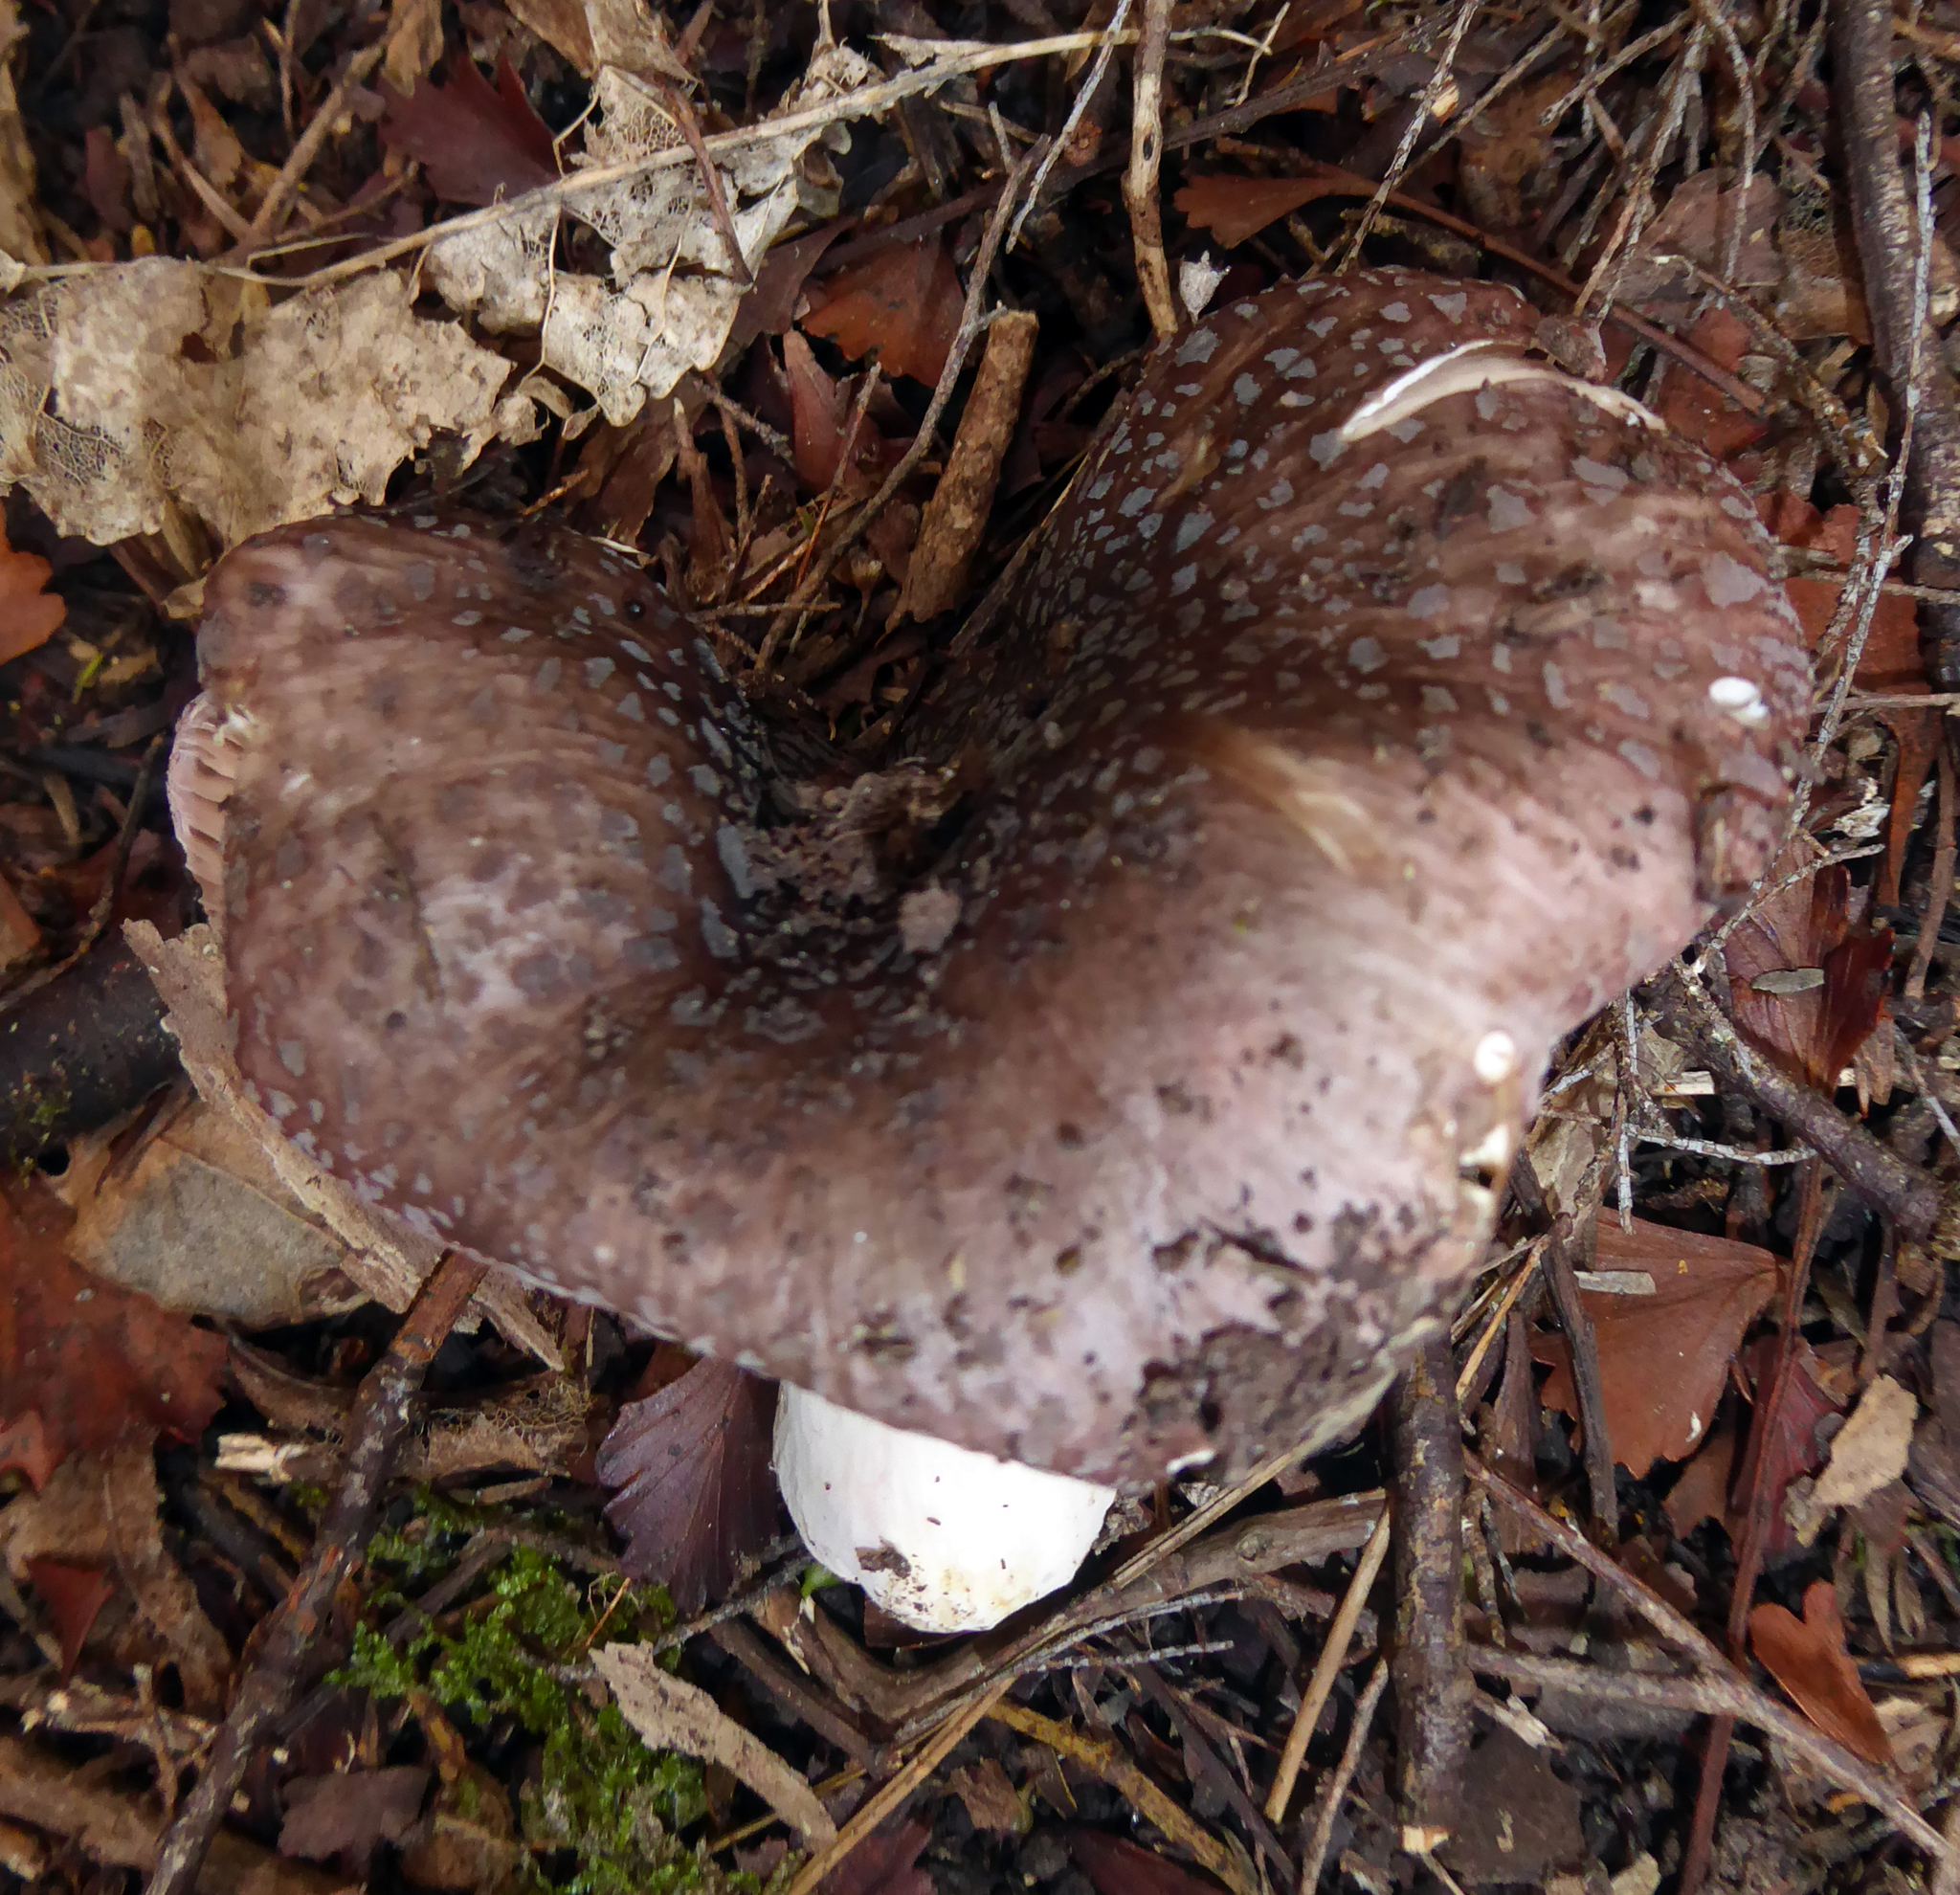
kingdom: Fungi
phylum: Basidiomycota
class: Agaricomycetes
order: Russulales
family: Russulaceae
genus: Russula
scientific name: Russula griseoviridis
